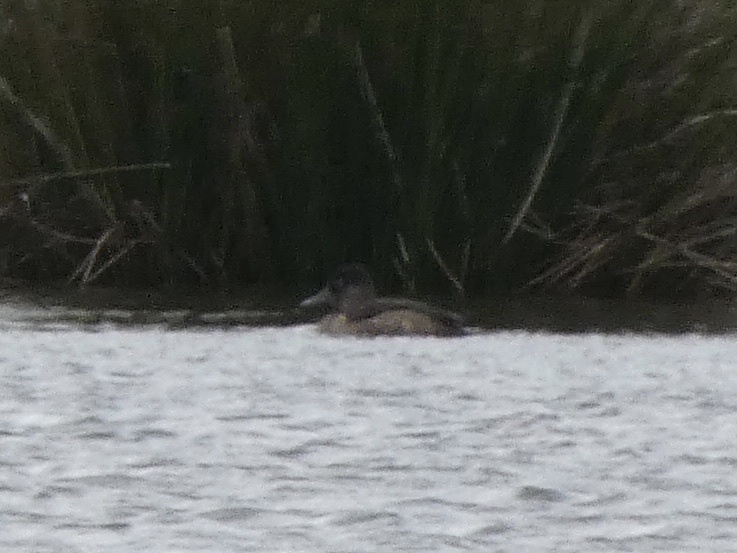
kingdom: Animalia
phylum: Chordata
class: Aves
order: Anseriformes
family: Anatidae
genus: Aythya
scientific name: Aythya collaris
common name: Ring-necked duck
